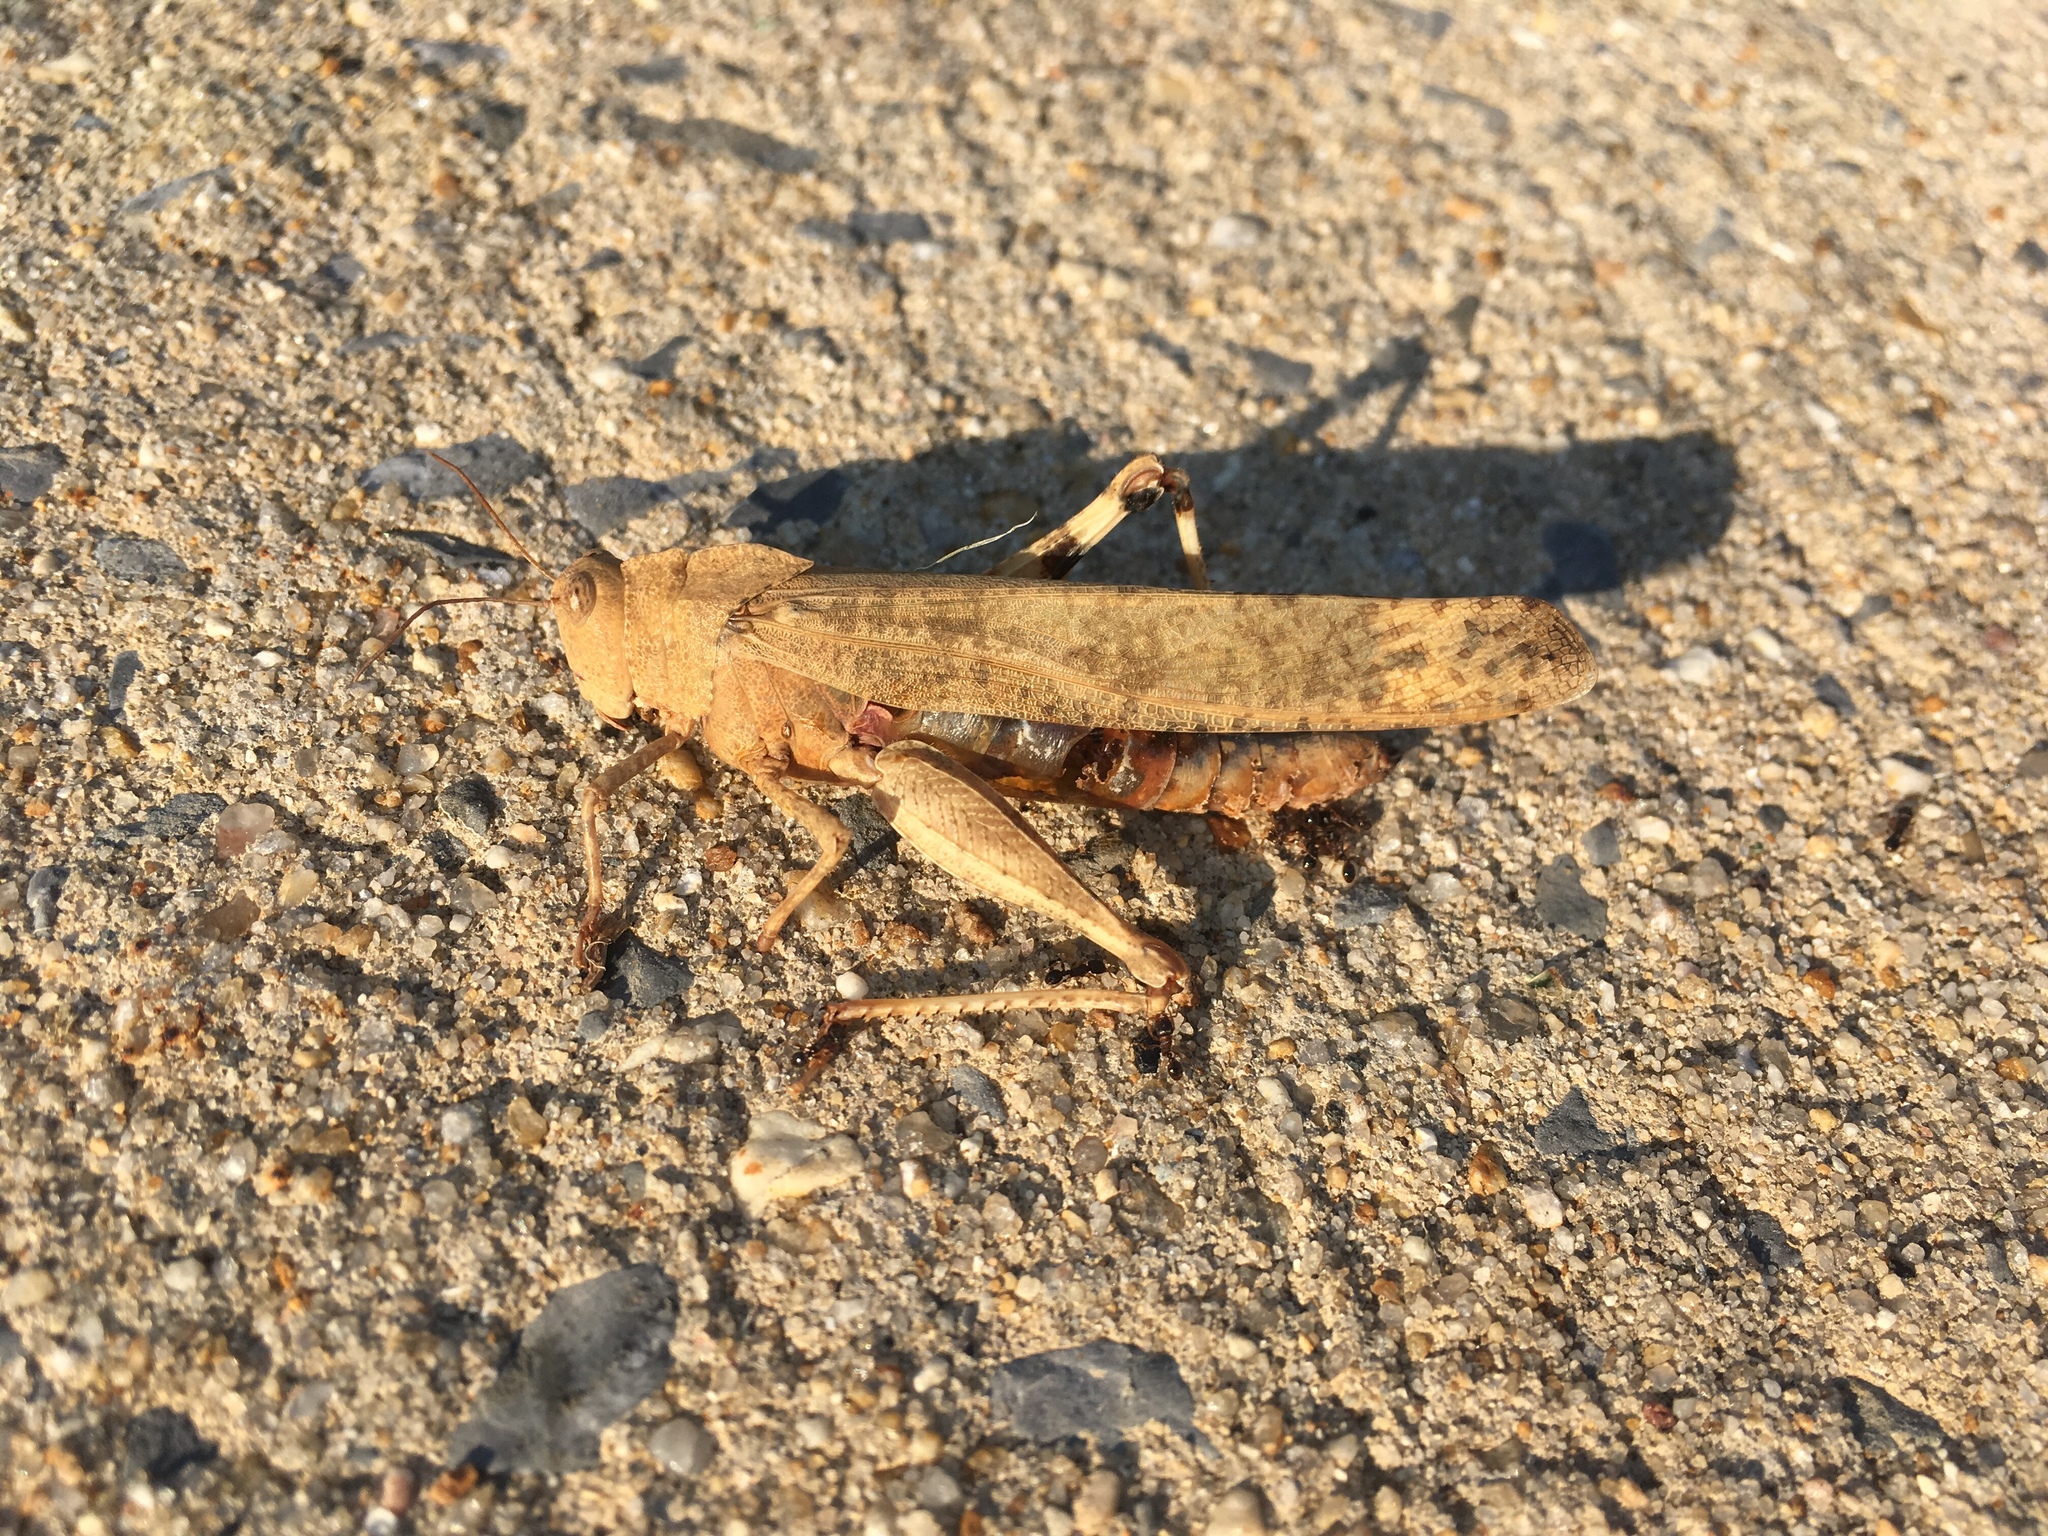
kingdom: Animalia
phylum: Arthropoda
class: Insecta
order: Orthoptera
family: Acrididae
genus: Dissosteira
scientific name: Dissosteira carolina
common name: Carolina grasshopper
